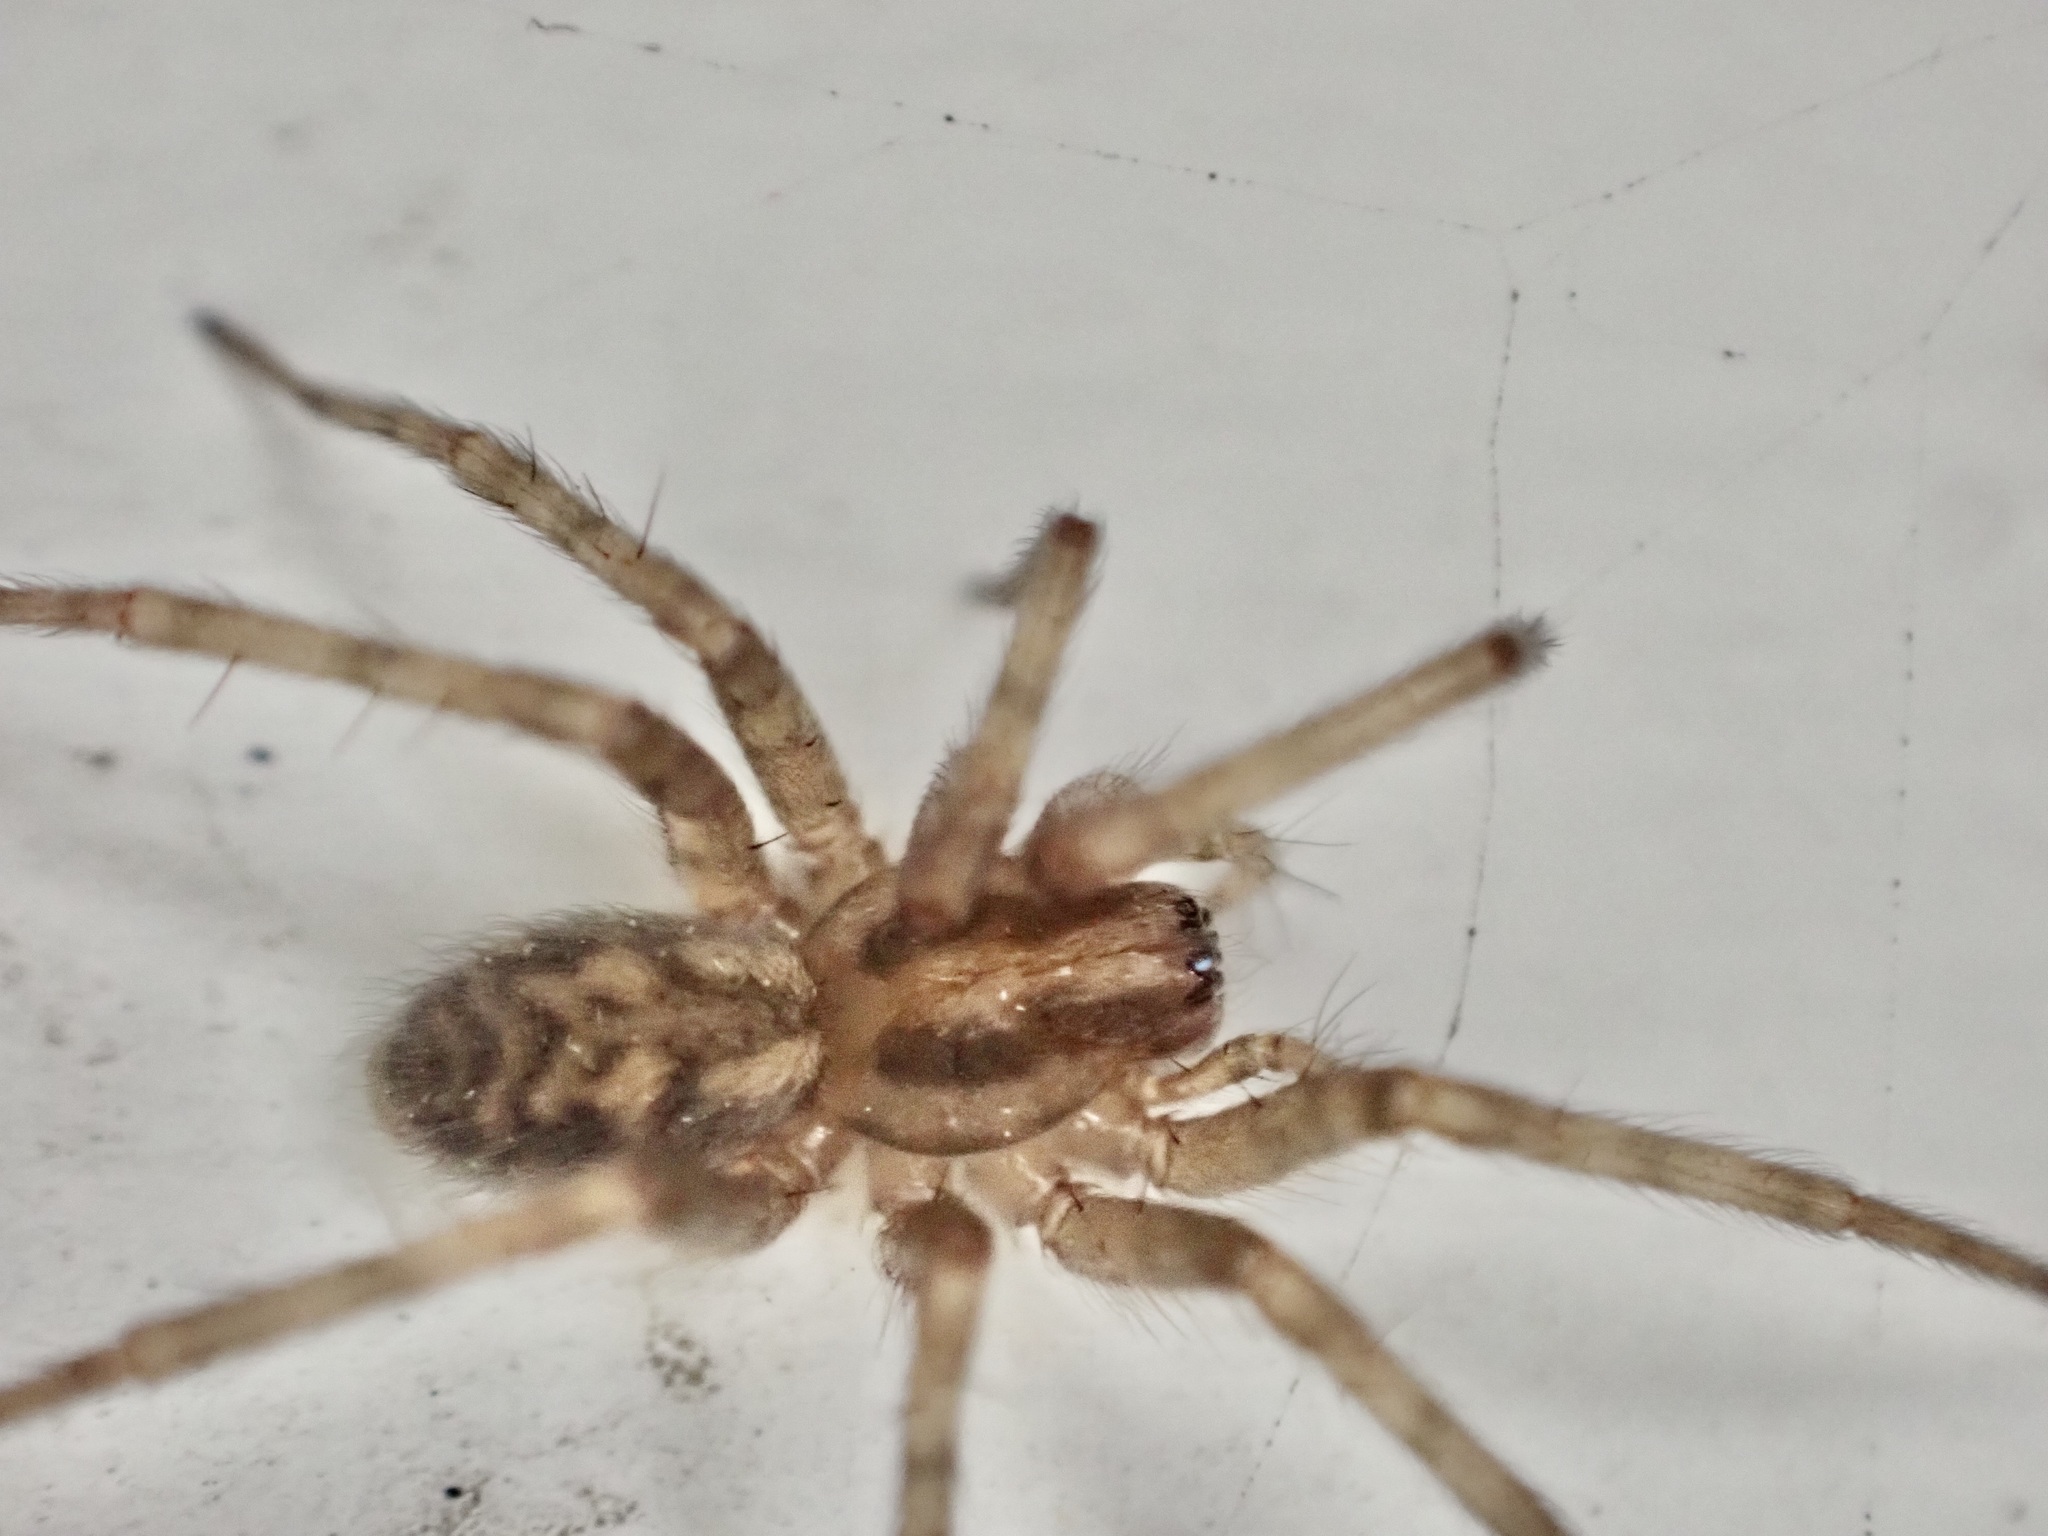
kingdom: Animalia
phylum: Arthropoda
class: Arachnida
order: Araneae
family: Agelenidae
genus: Tegenaria
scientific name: Tegenaria domestica
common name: Barn funnel weaver
